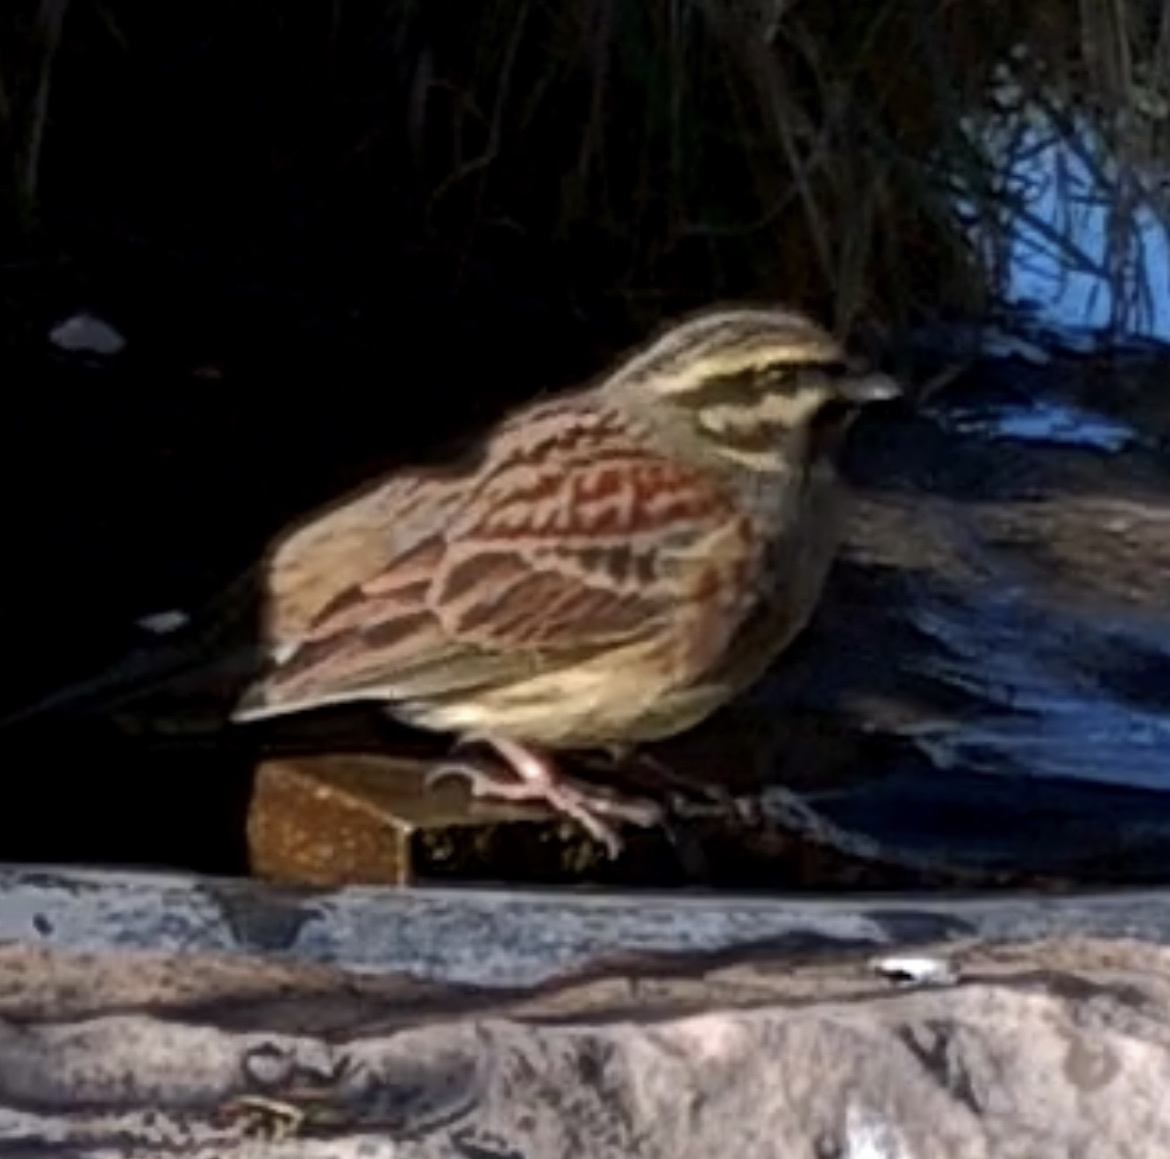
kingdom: Animalia
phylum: Chordata
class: Aves
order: Passeriformes
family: Emberizidae
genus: Emberiza
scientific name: Emberiza cirlus
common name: Cirl bunting
